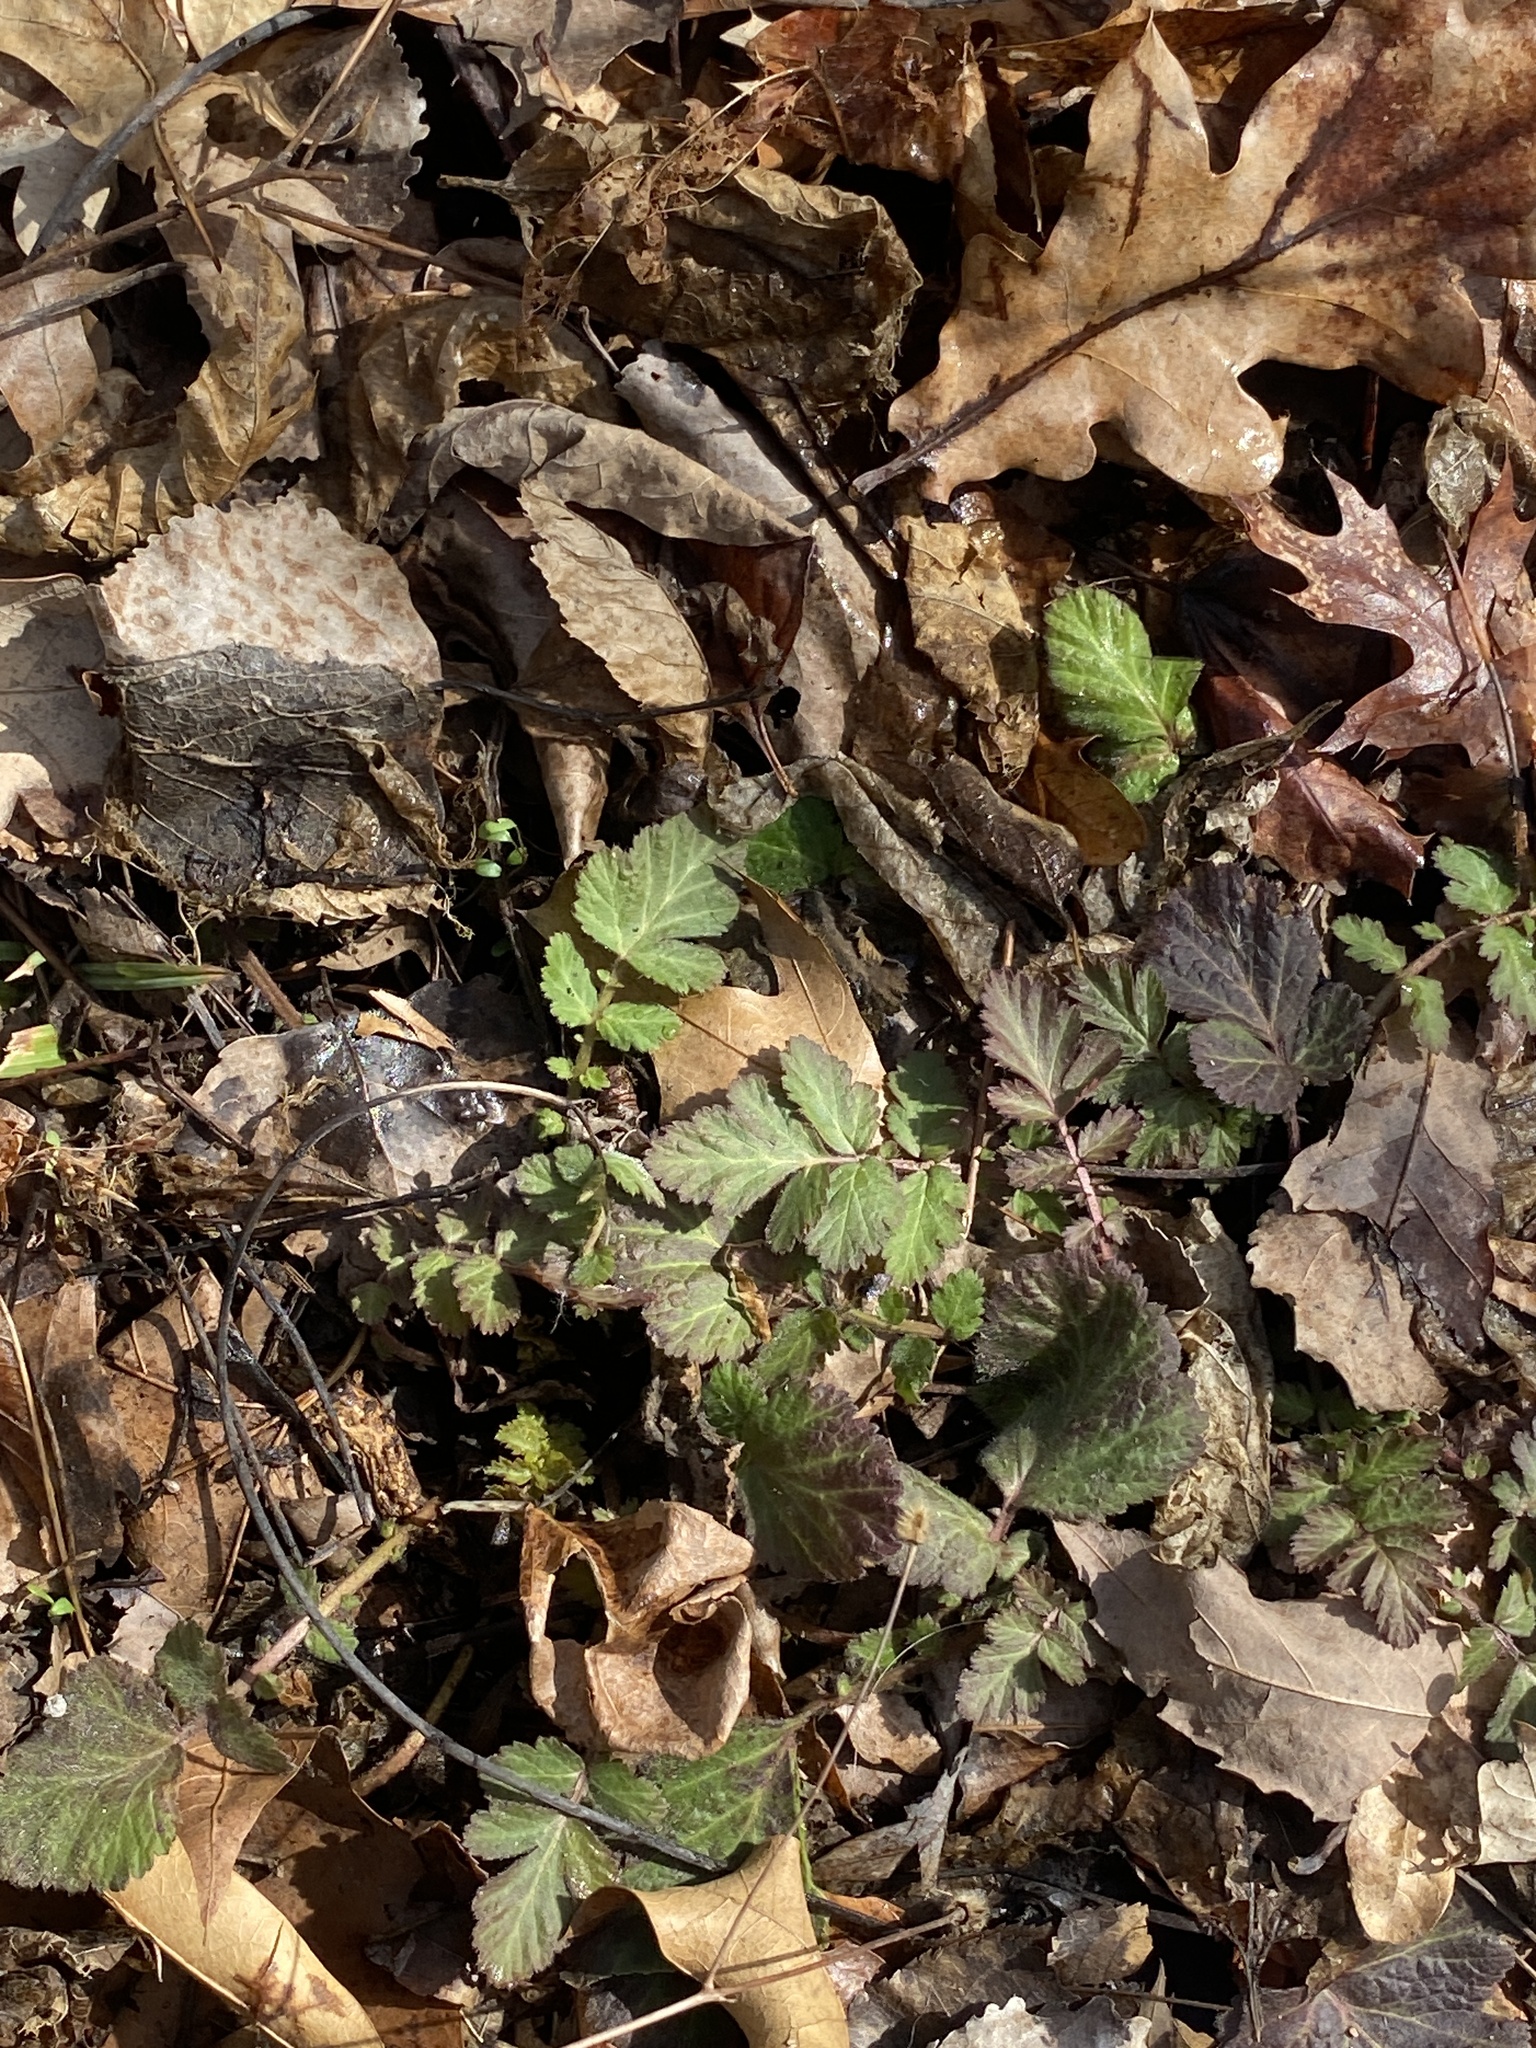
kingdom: Plantae
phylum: Tracheophyta
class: Magnoliopsida
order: Rosales
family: Rosaceae
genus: Geum
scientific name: Geum canadense
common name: White avens
